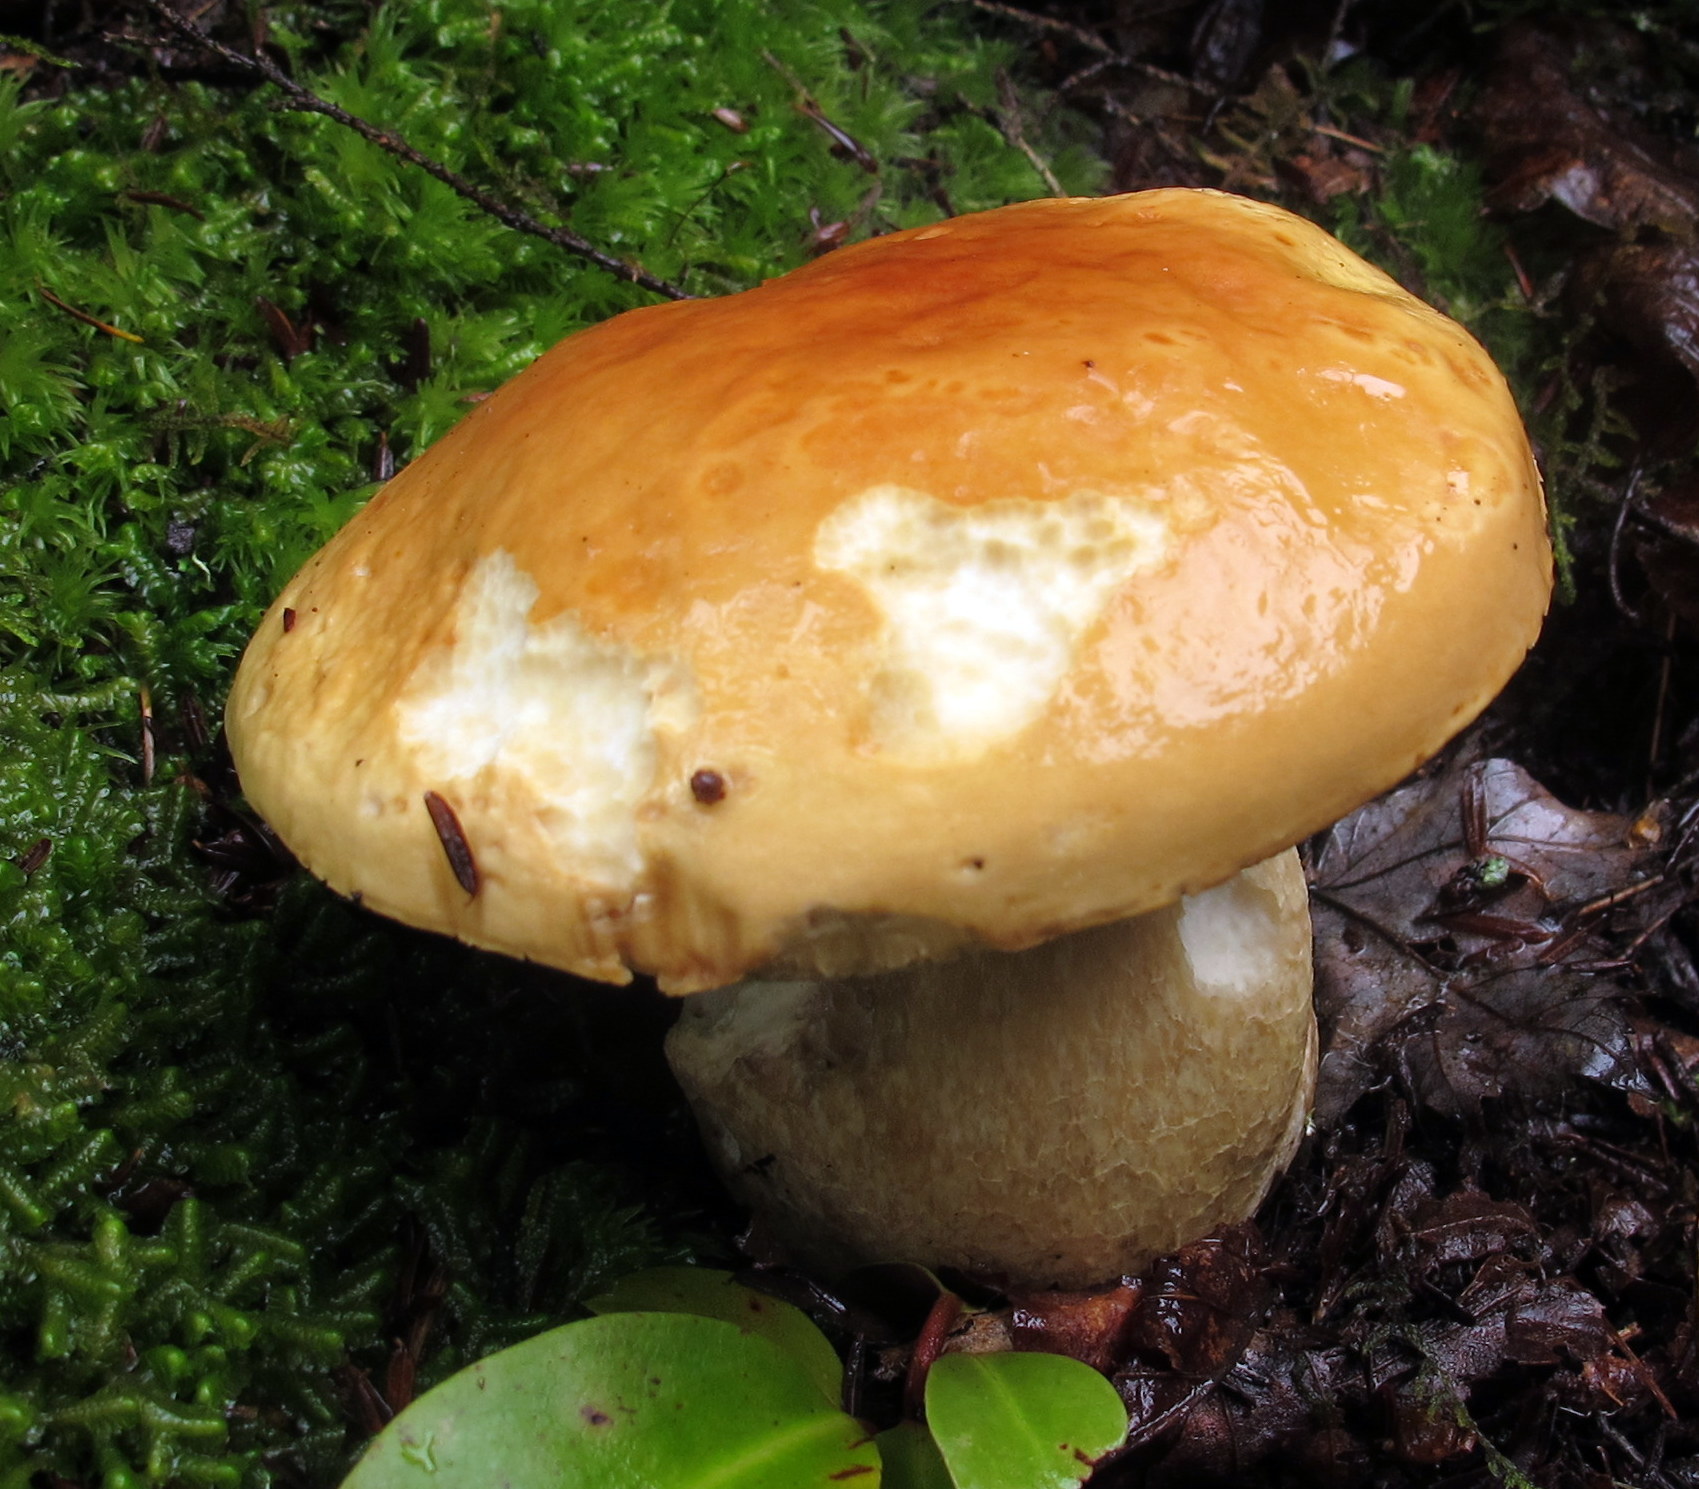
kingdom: Fungi
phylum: Basidiomycota
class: Agaricomycetes
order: Boletales
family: Boletaceae
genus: Boletus
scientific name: Boletus edulis
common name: Cep
